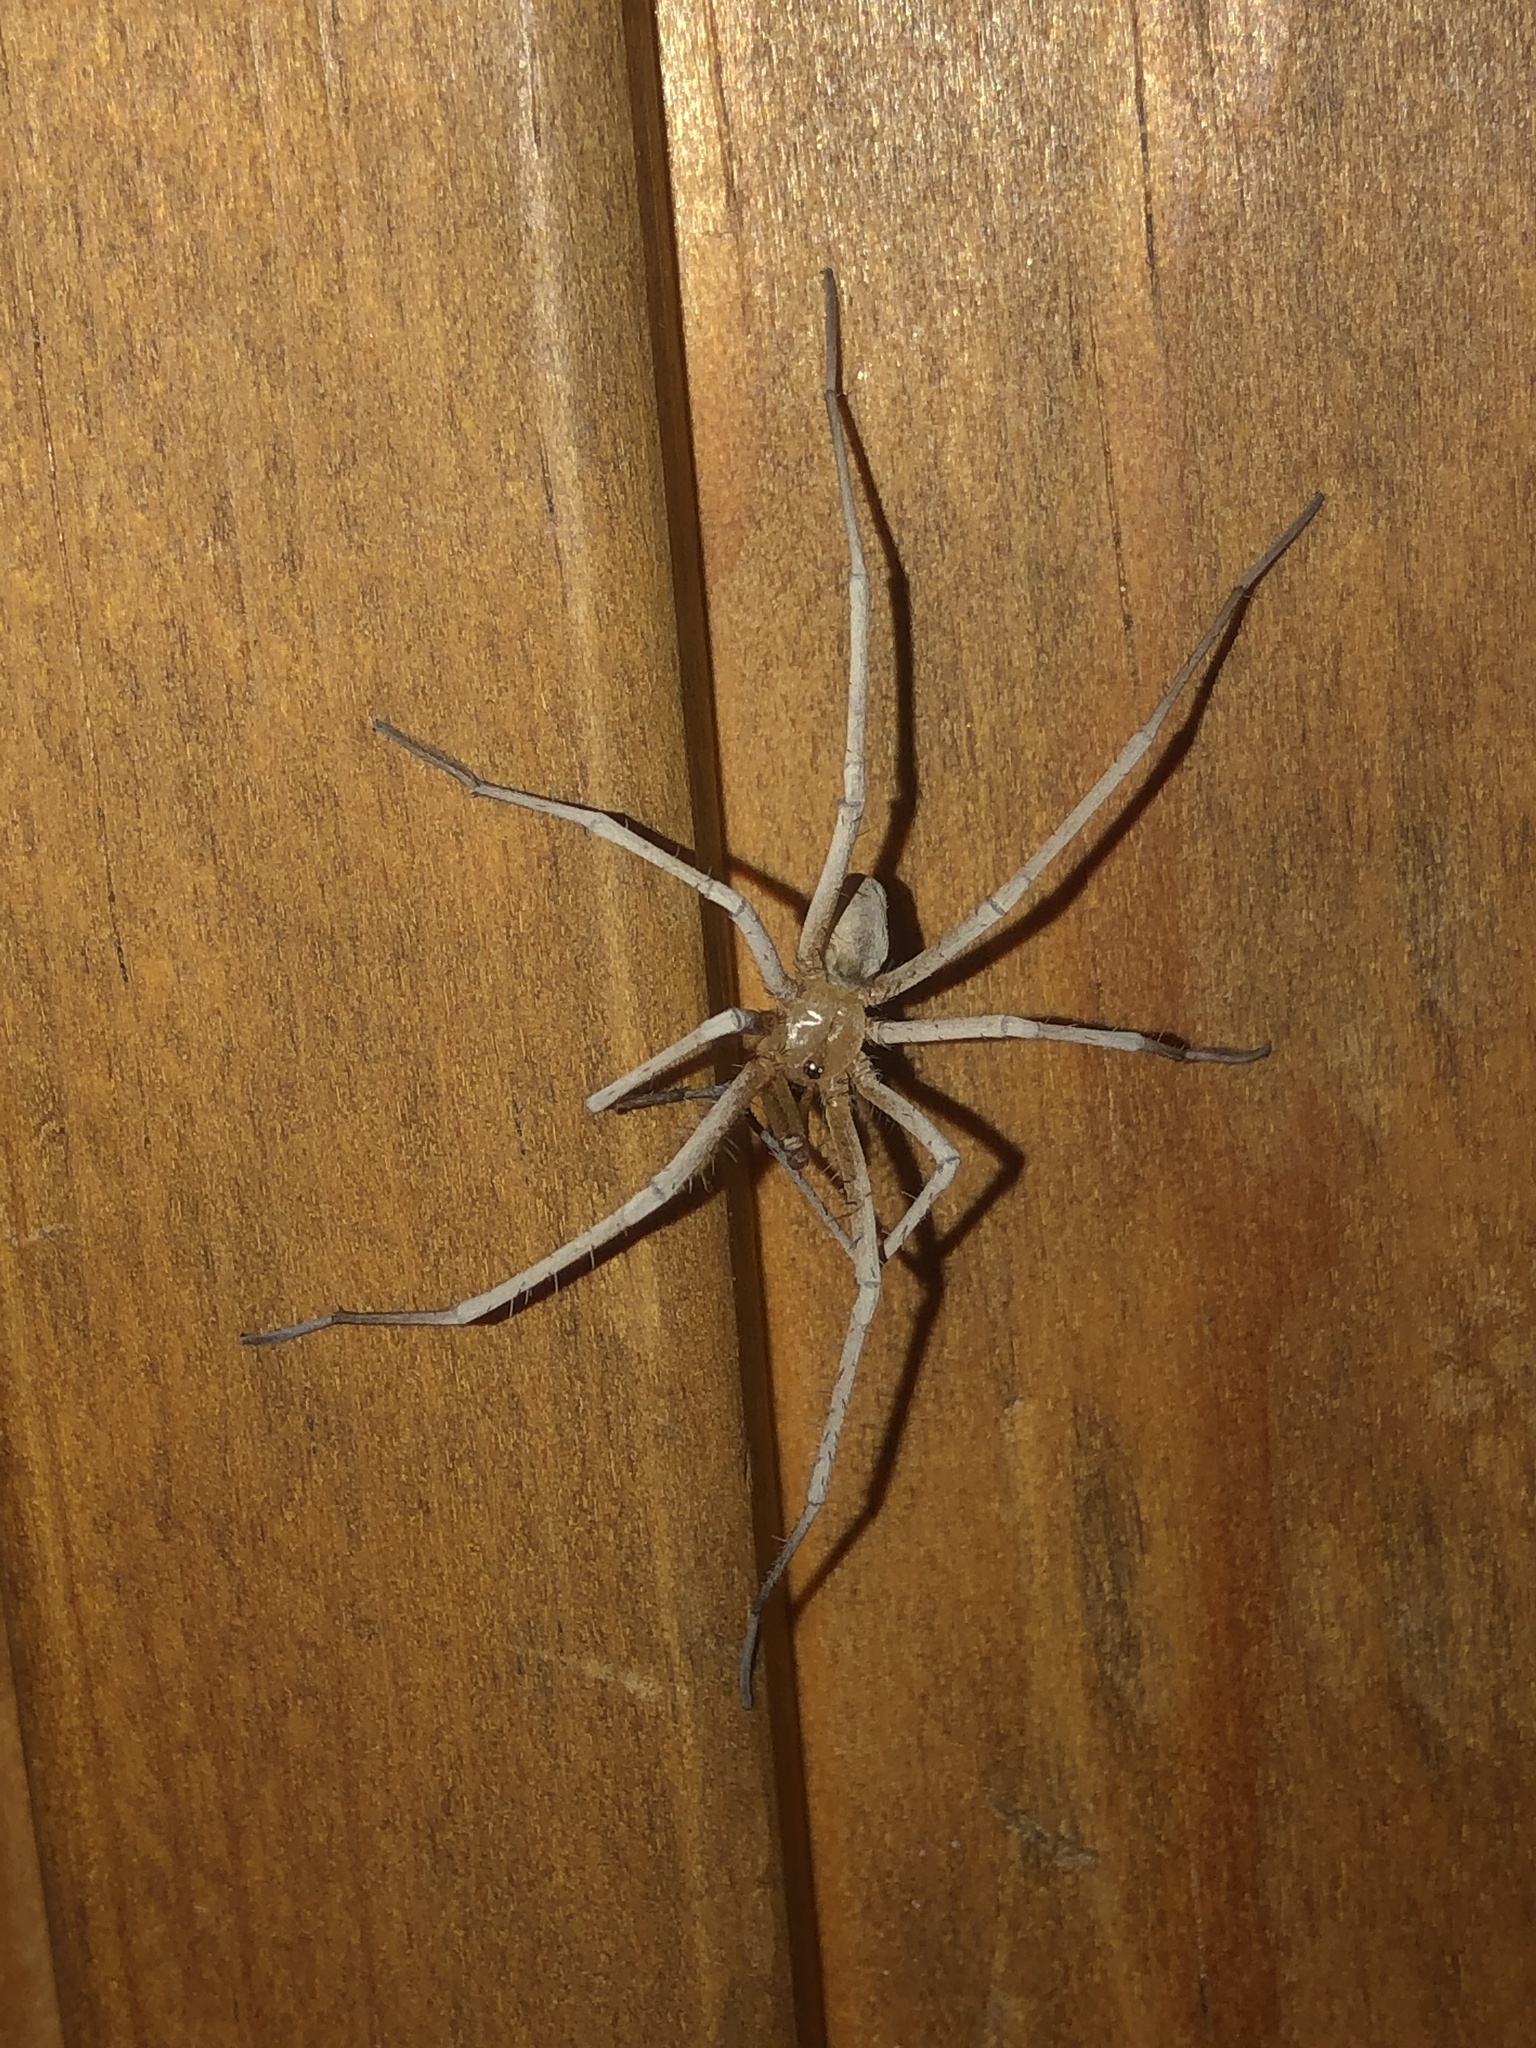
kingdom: Animalia
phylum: Arthropoda
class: Arachnida
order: Araneae
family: Filistatidae
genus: Kukulcania
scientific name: Kukulcania arizonica
